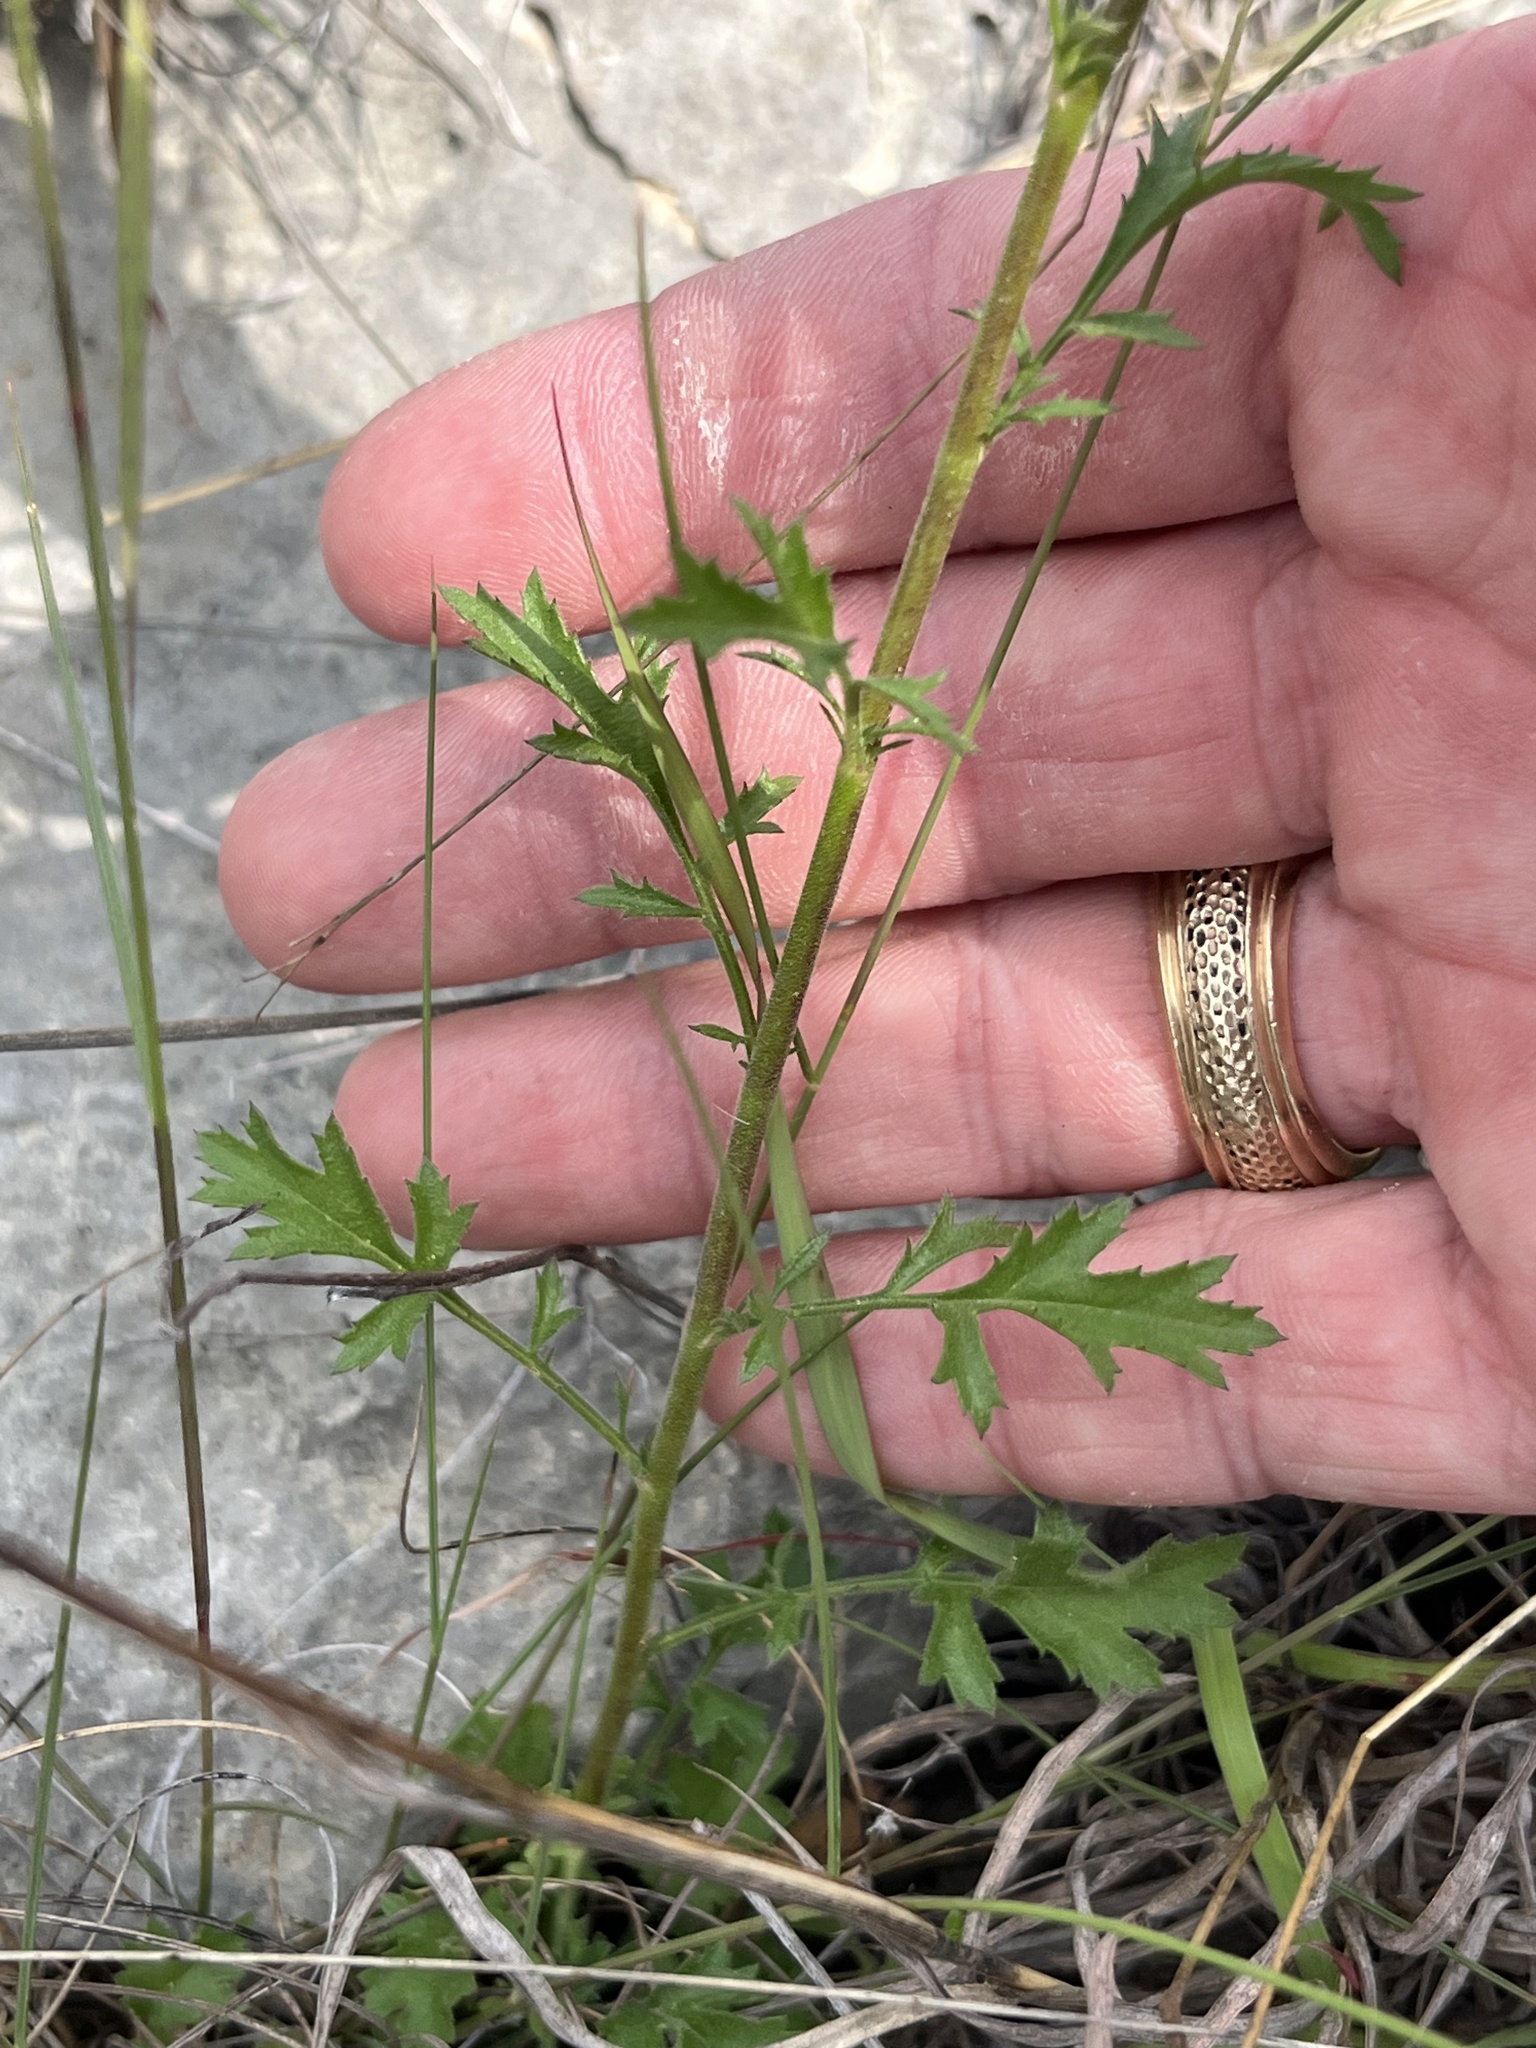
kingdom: Plantae
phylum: Tracheophyta
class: Magnoliopsida
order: Ericales
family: Polemoniaceae
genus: Giliastrum
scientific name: Giliastrum incisum
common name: Splitleaf gilia
